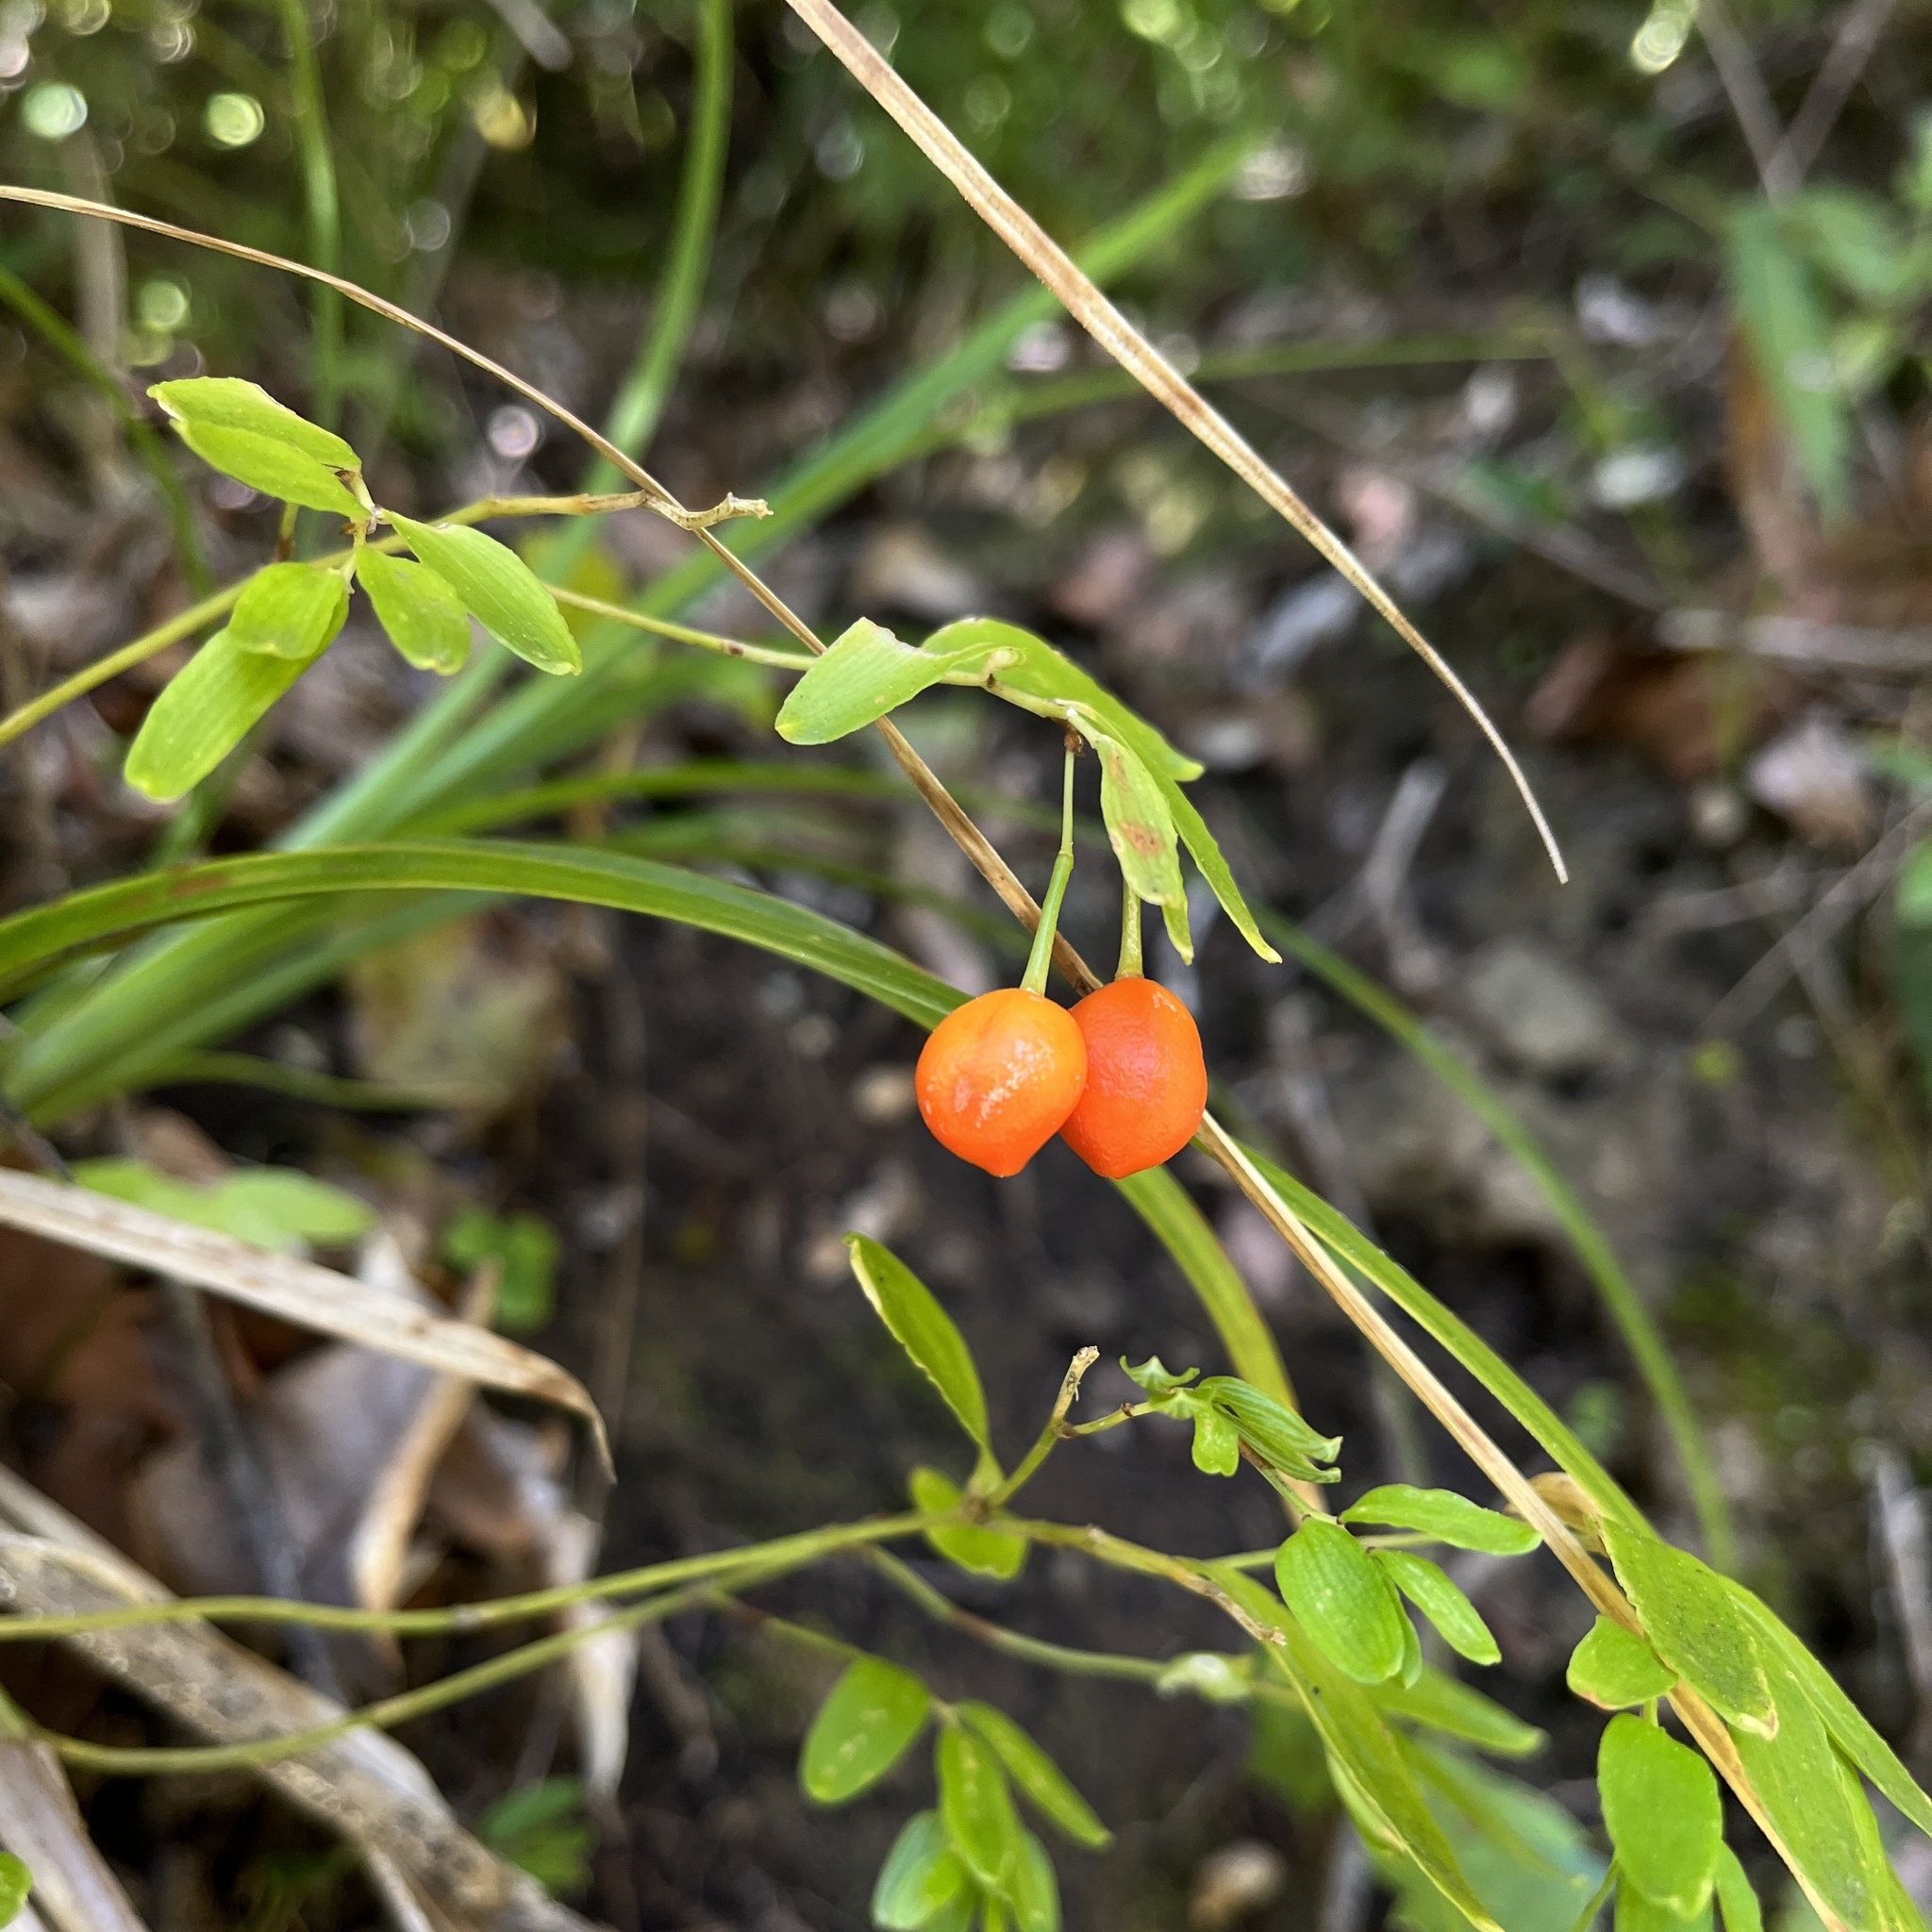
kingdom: Plantae
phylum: Tracheophyta
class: Liliopsida
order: Liliales
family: Alstroemeriaceae
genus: Luzuriaga
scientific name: Luzuriaga radicans
